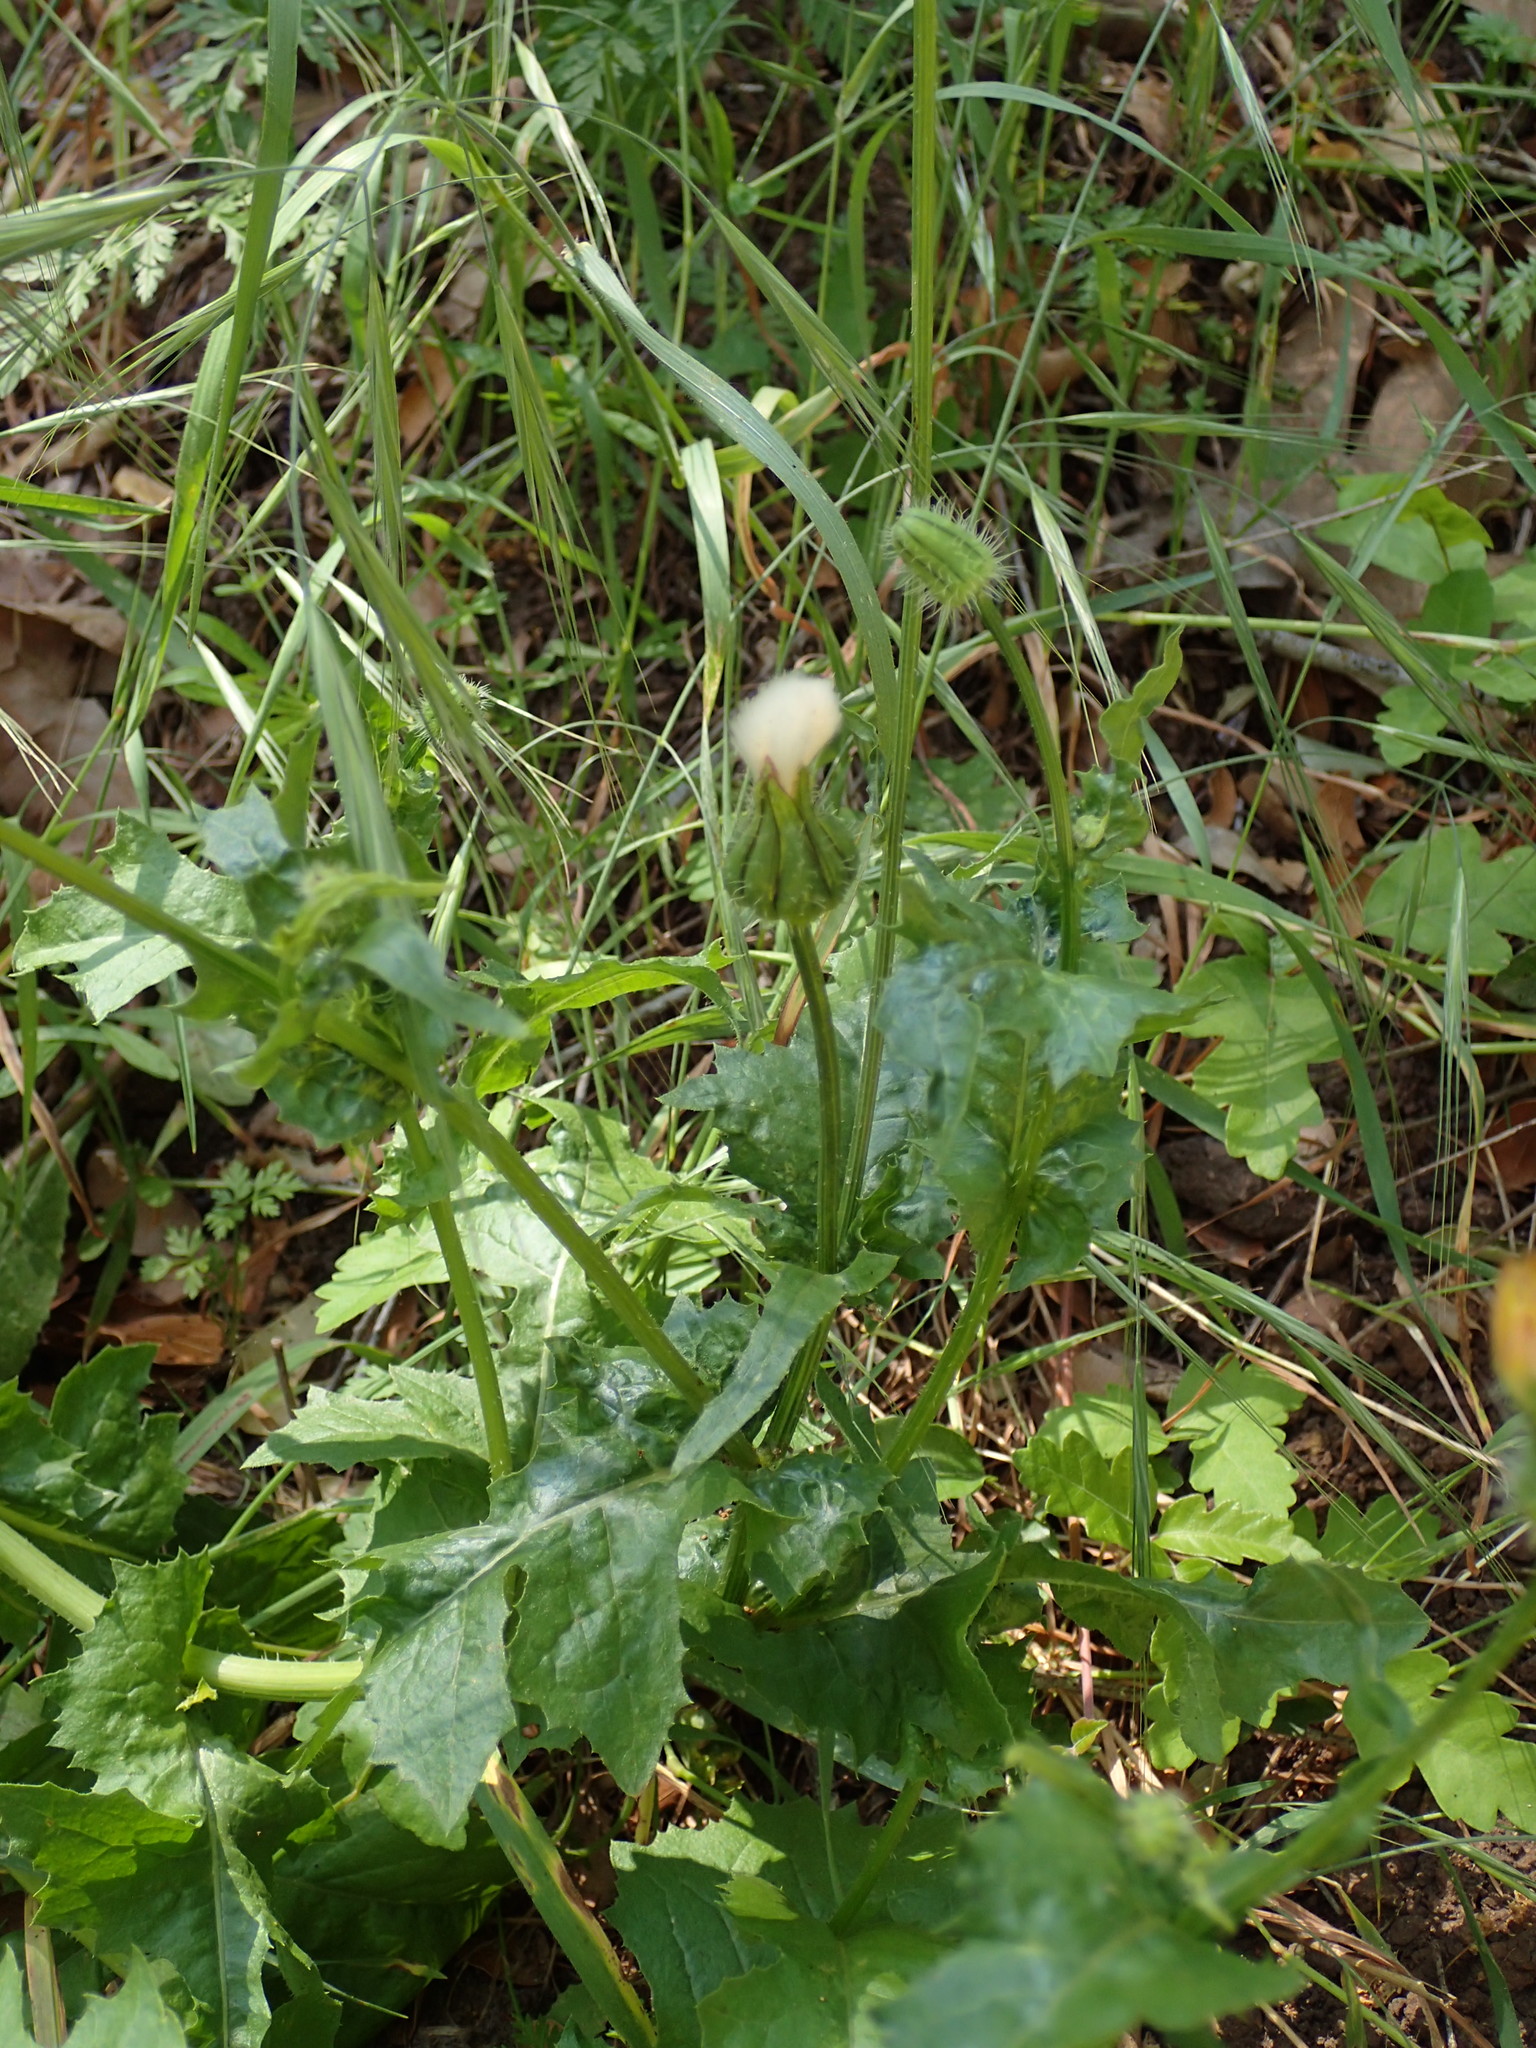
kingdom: Plantae
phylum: Tracheophyta
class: Magnoliopsida
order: Asterales
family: Asteraceae
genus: Urospermum
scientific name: Urospermum picroides
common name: False hawkbit
